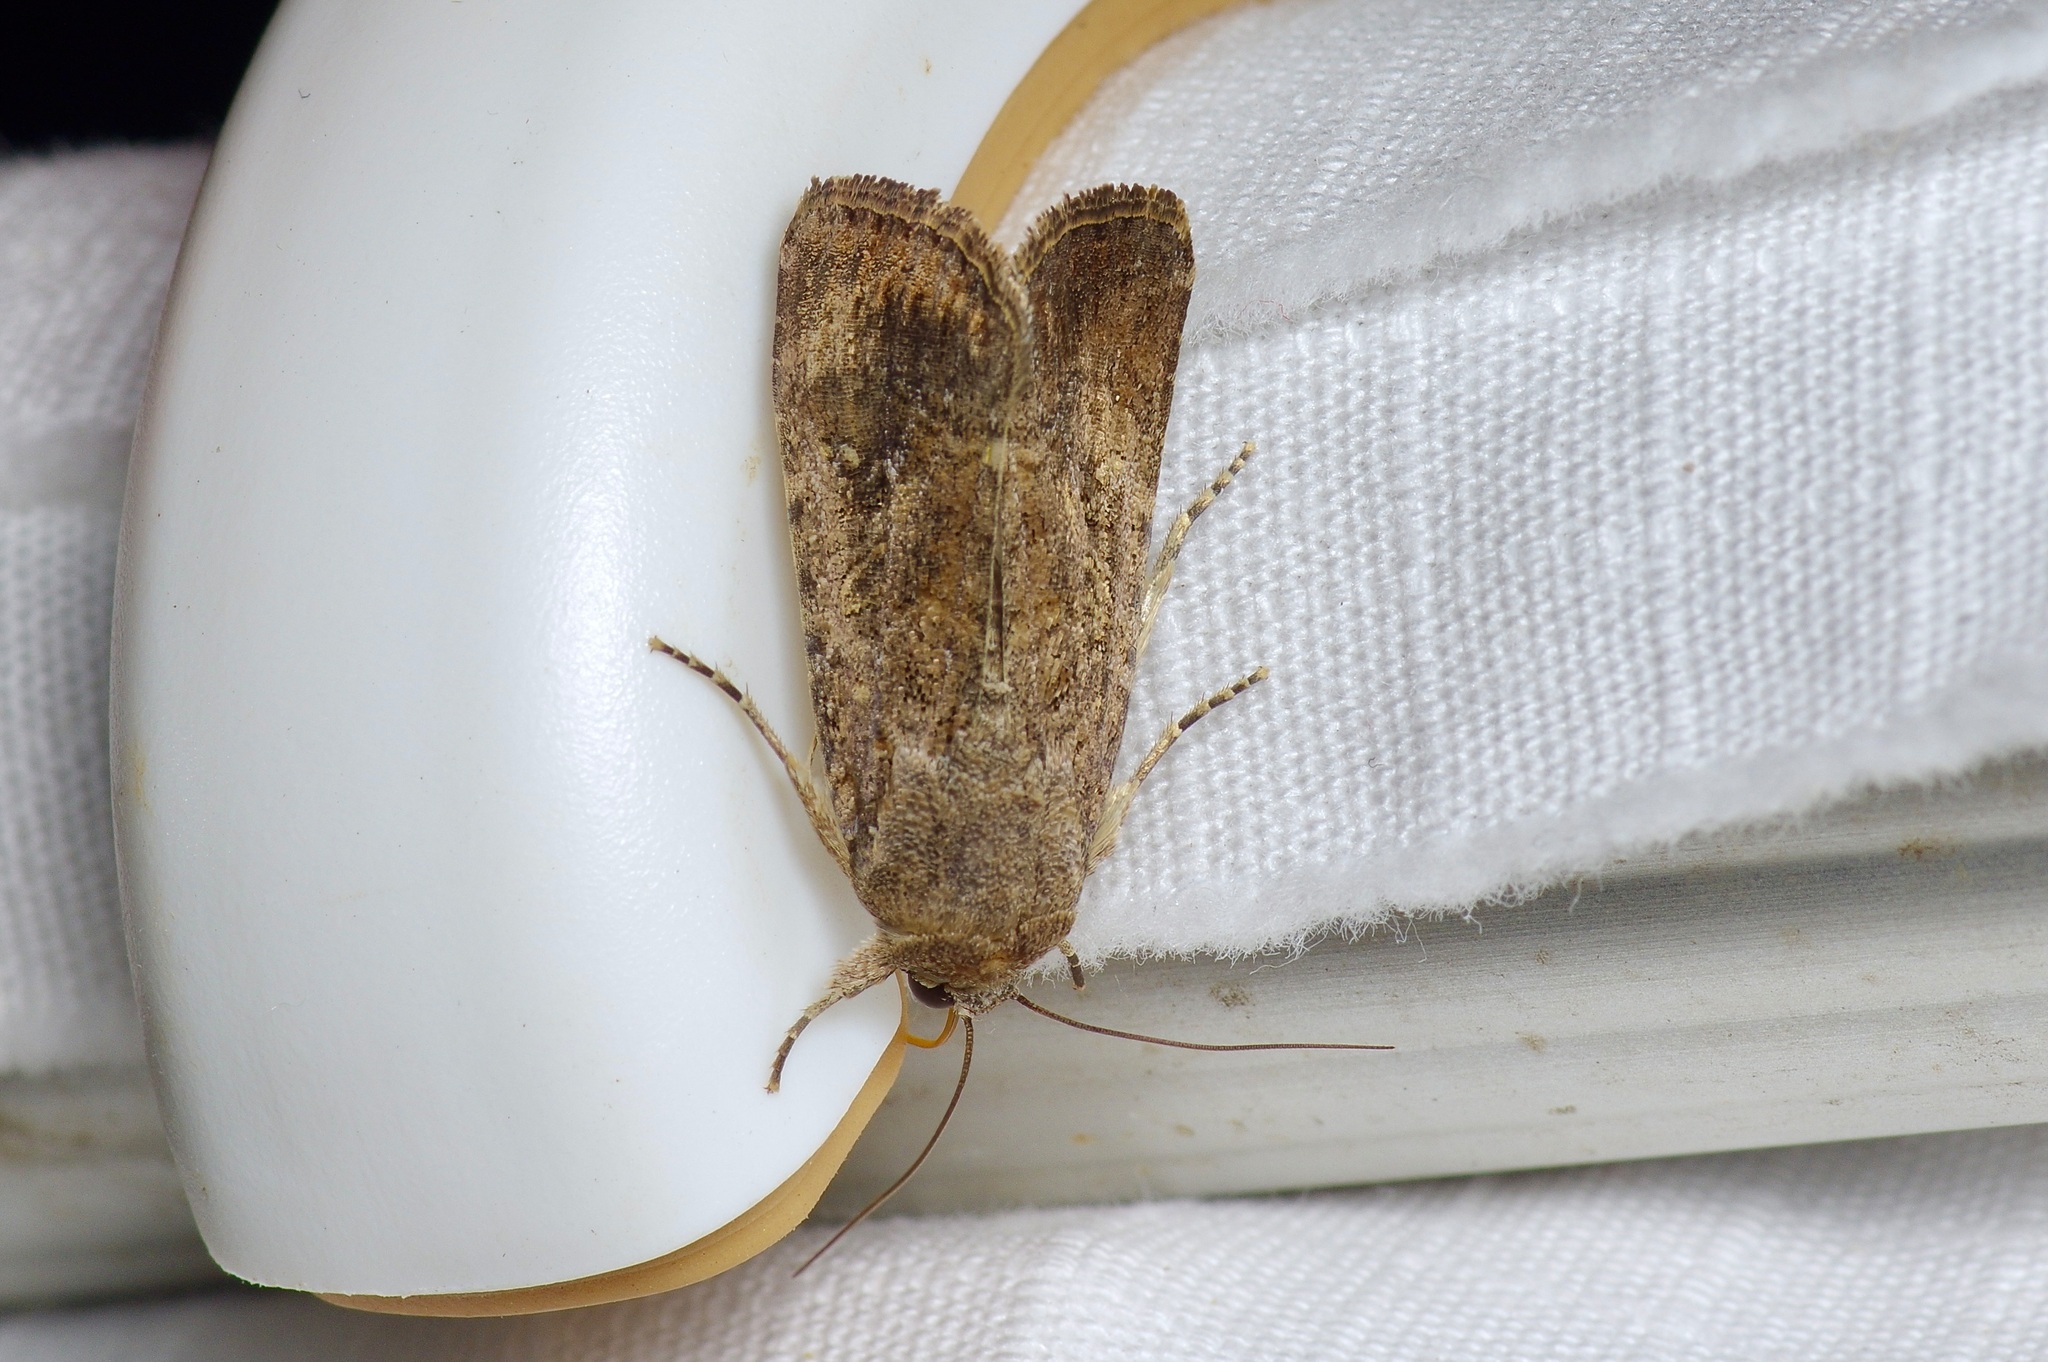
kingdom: Animalia
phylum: Arthropoda
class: Insecta
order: Lepidoptera
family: Noctuidae
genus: Spodoptera
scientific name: Spodoptera frugiperda
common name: Fall armyworm
